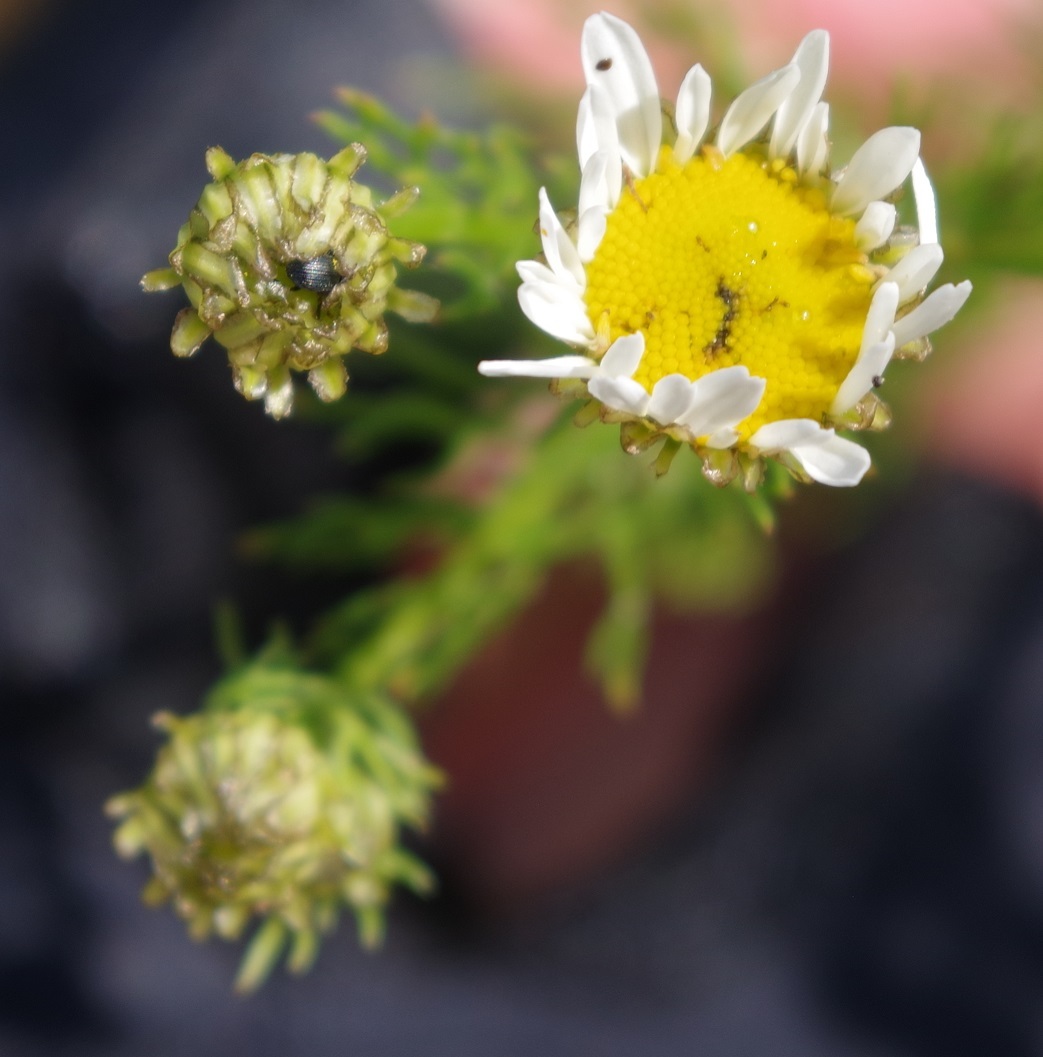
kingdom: Plantae
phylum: Tracheophyta
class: Magnoliopsida
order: Asterales
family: Asteraceae
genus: Tripleurospermum
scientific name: Tripleurospermum inodorum
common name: Scentless mayweed
